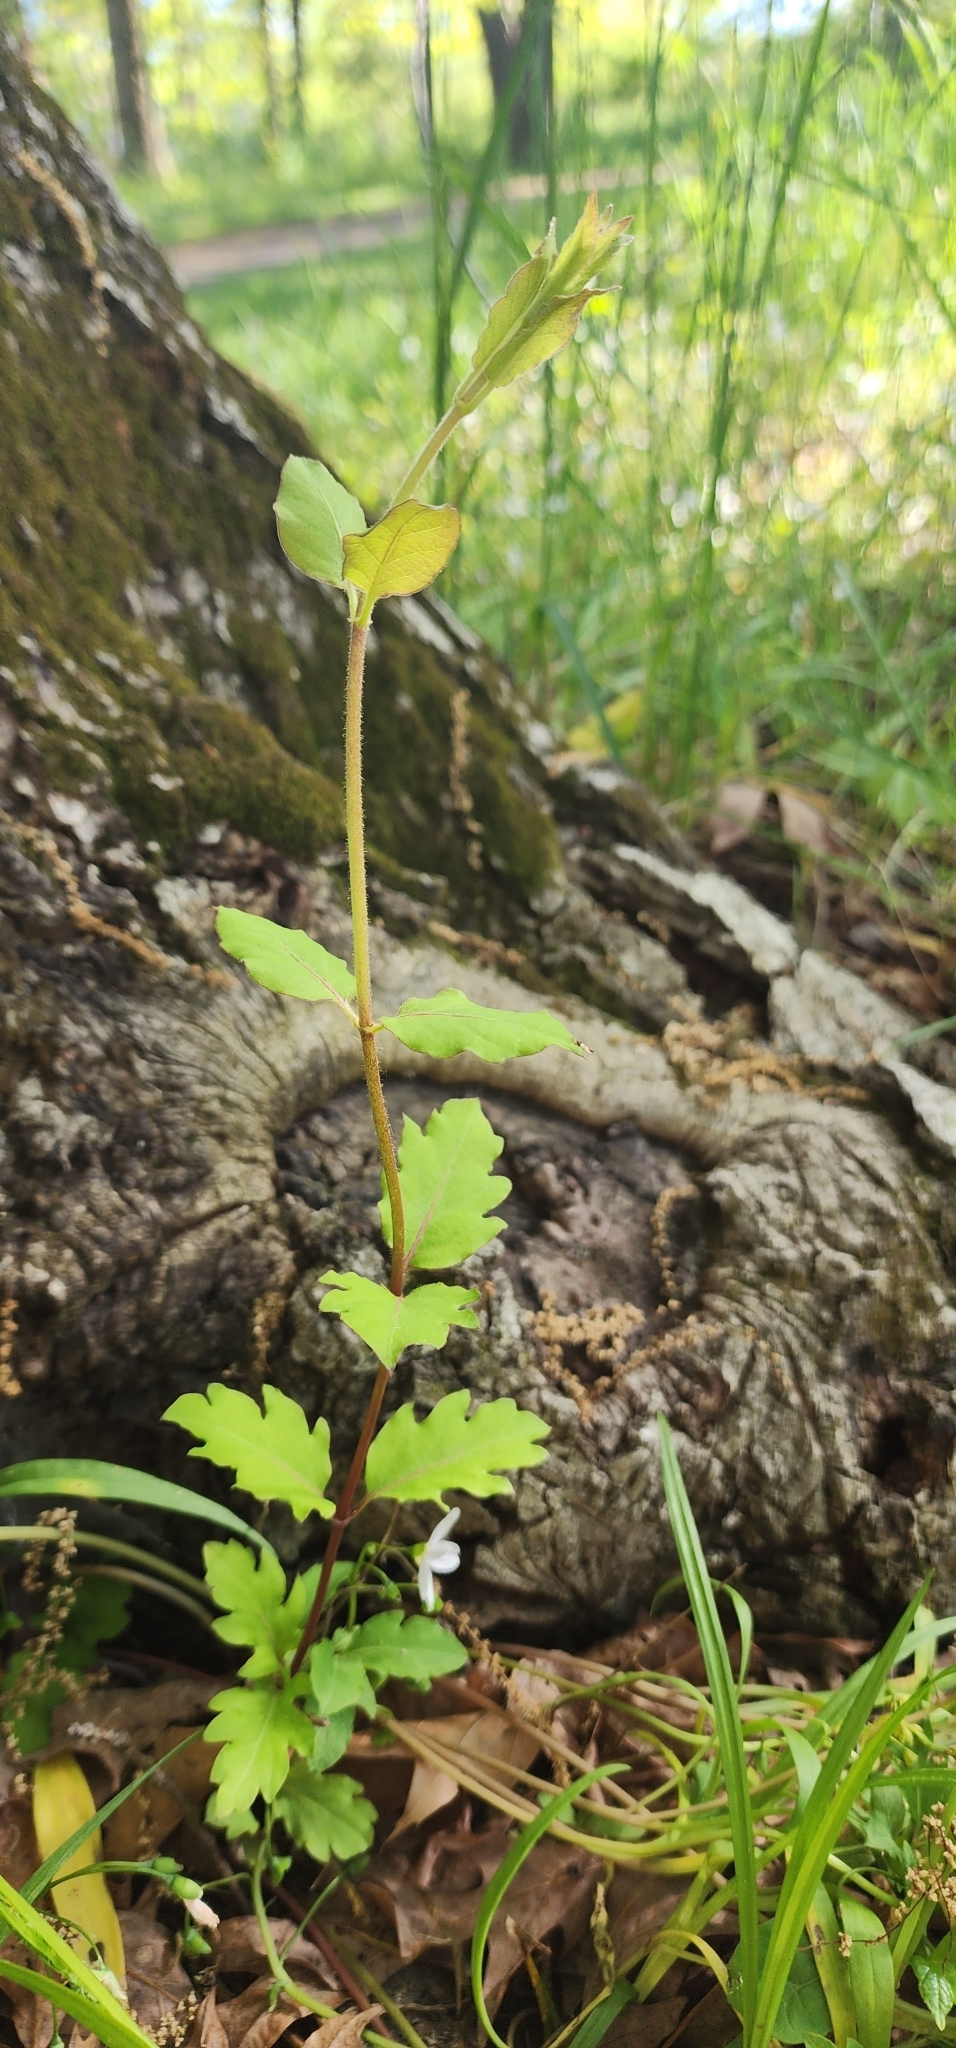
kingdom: Plantae
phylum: Tracheophyta
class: Magnoliopsida
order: Dipsacales
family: Caprifoliaceae
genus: Lonicera
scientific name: Lonicera japonica
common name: Japanese honeysuckle
